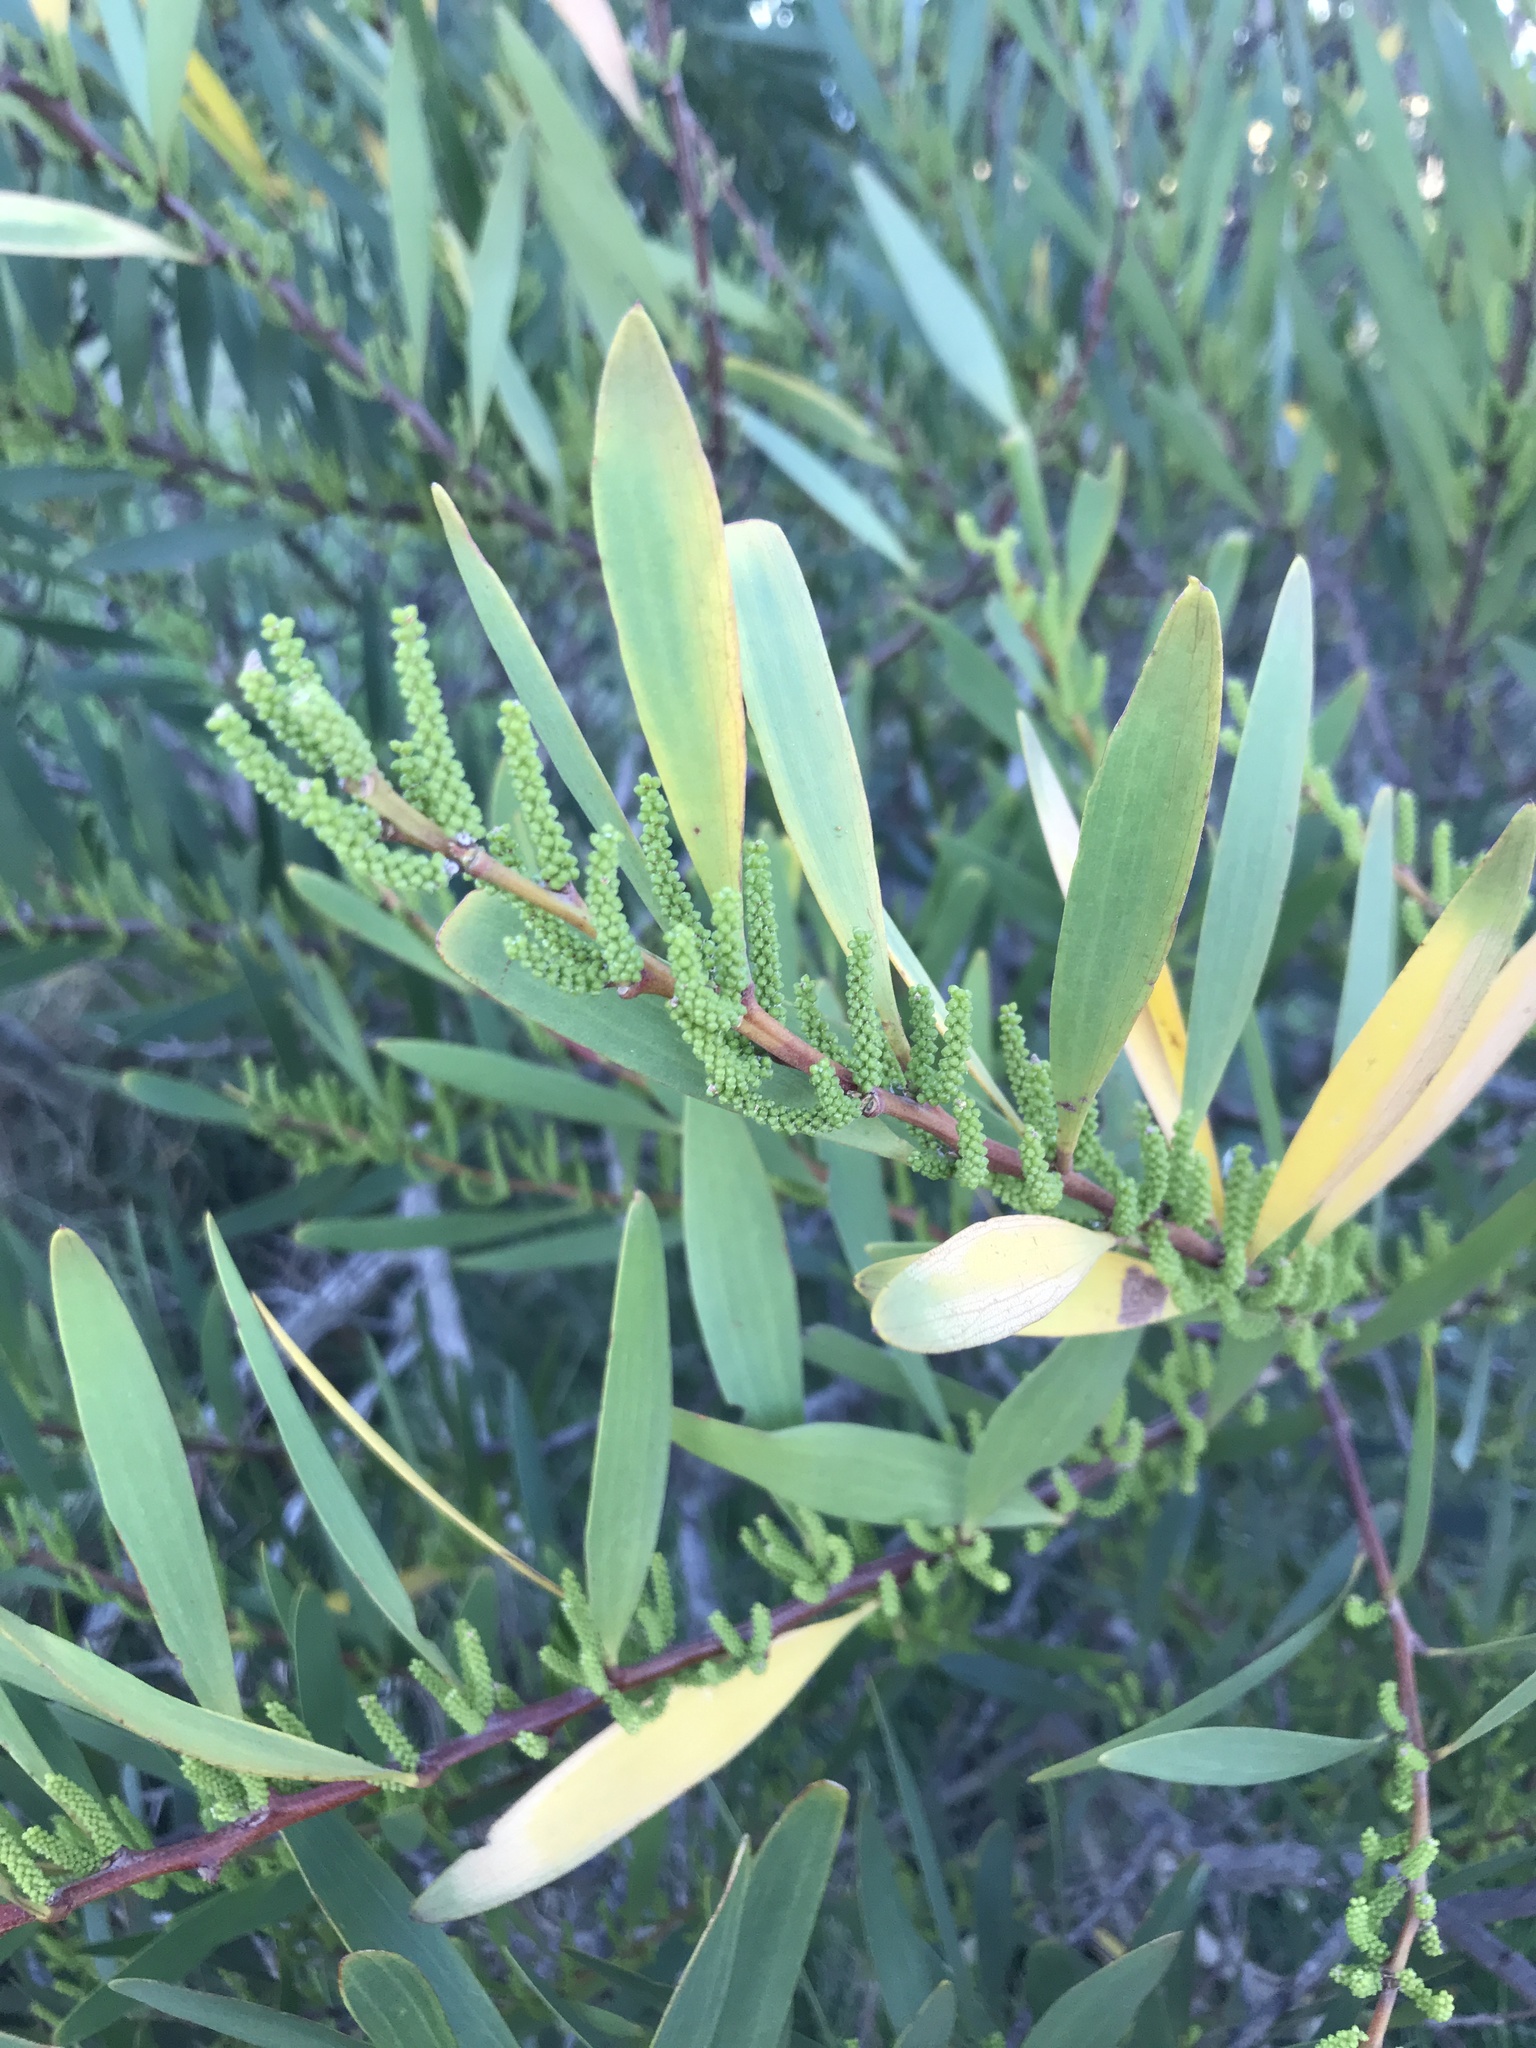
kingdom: Plantae
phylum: Tracheophyta
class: Magnoliopsida
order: Fabales
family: Fabaceae
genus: Acacia
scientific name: Acacia longifolia
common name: Sydney golden wattle
